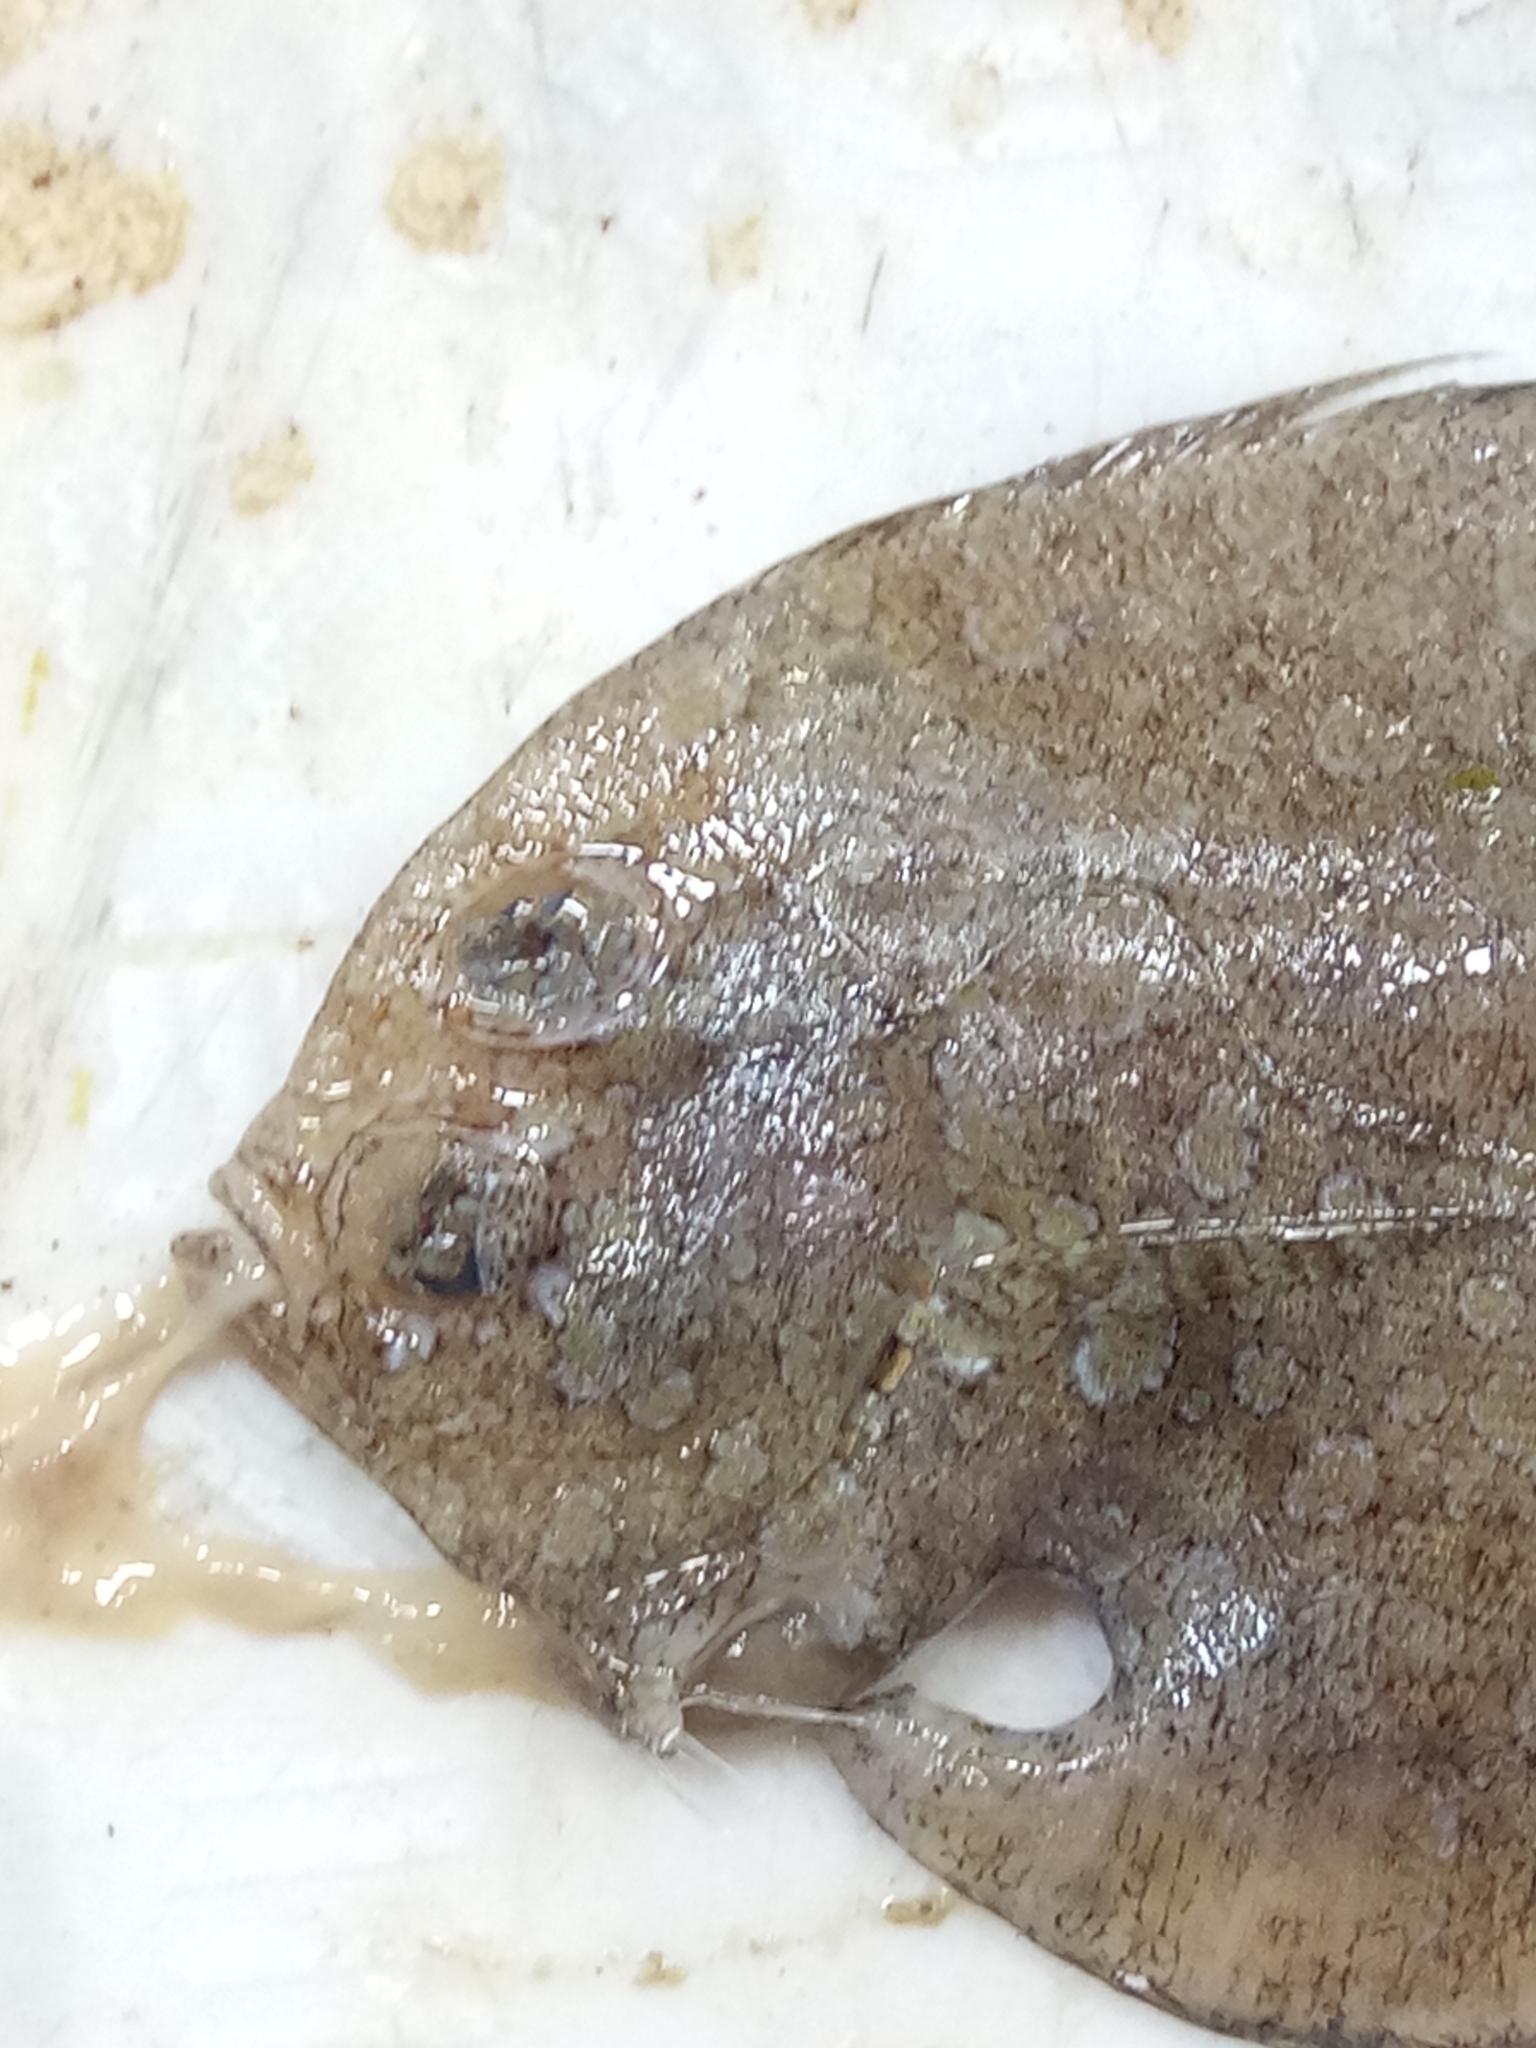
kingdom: Animalia
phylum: Chordata
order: Pleuronectiformes
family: Bothidae
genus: Bothus
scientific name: Bothus podas
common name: Wide-eyed flounder
